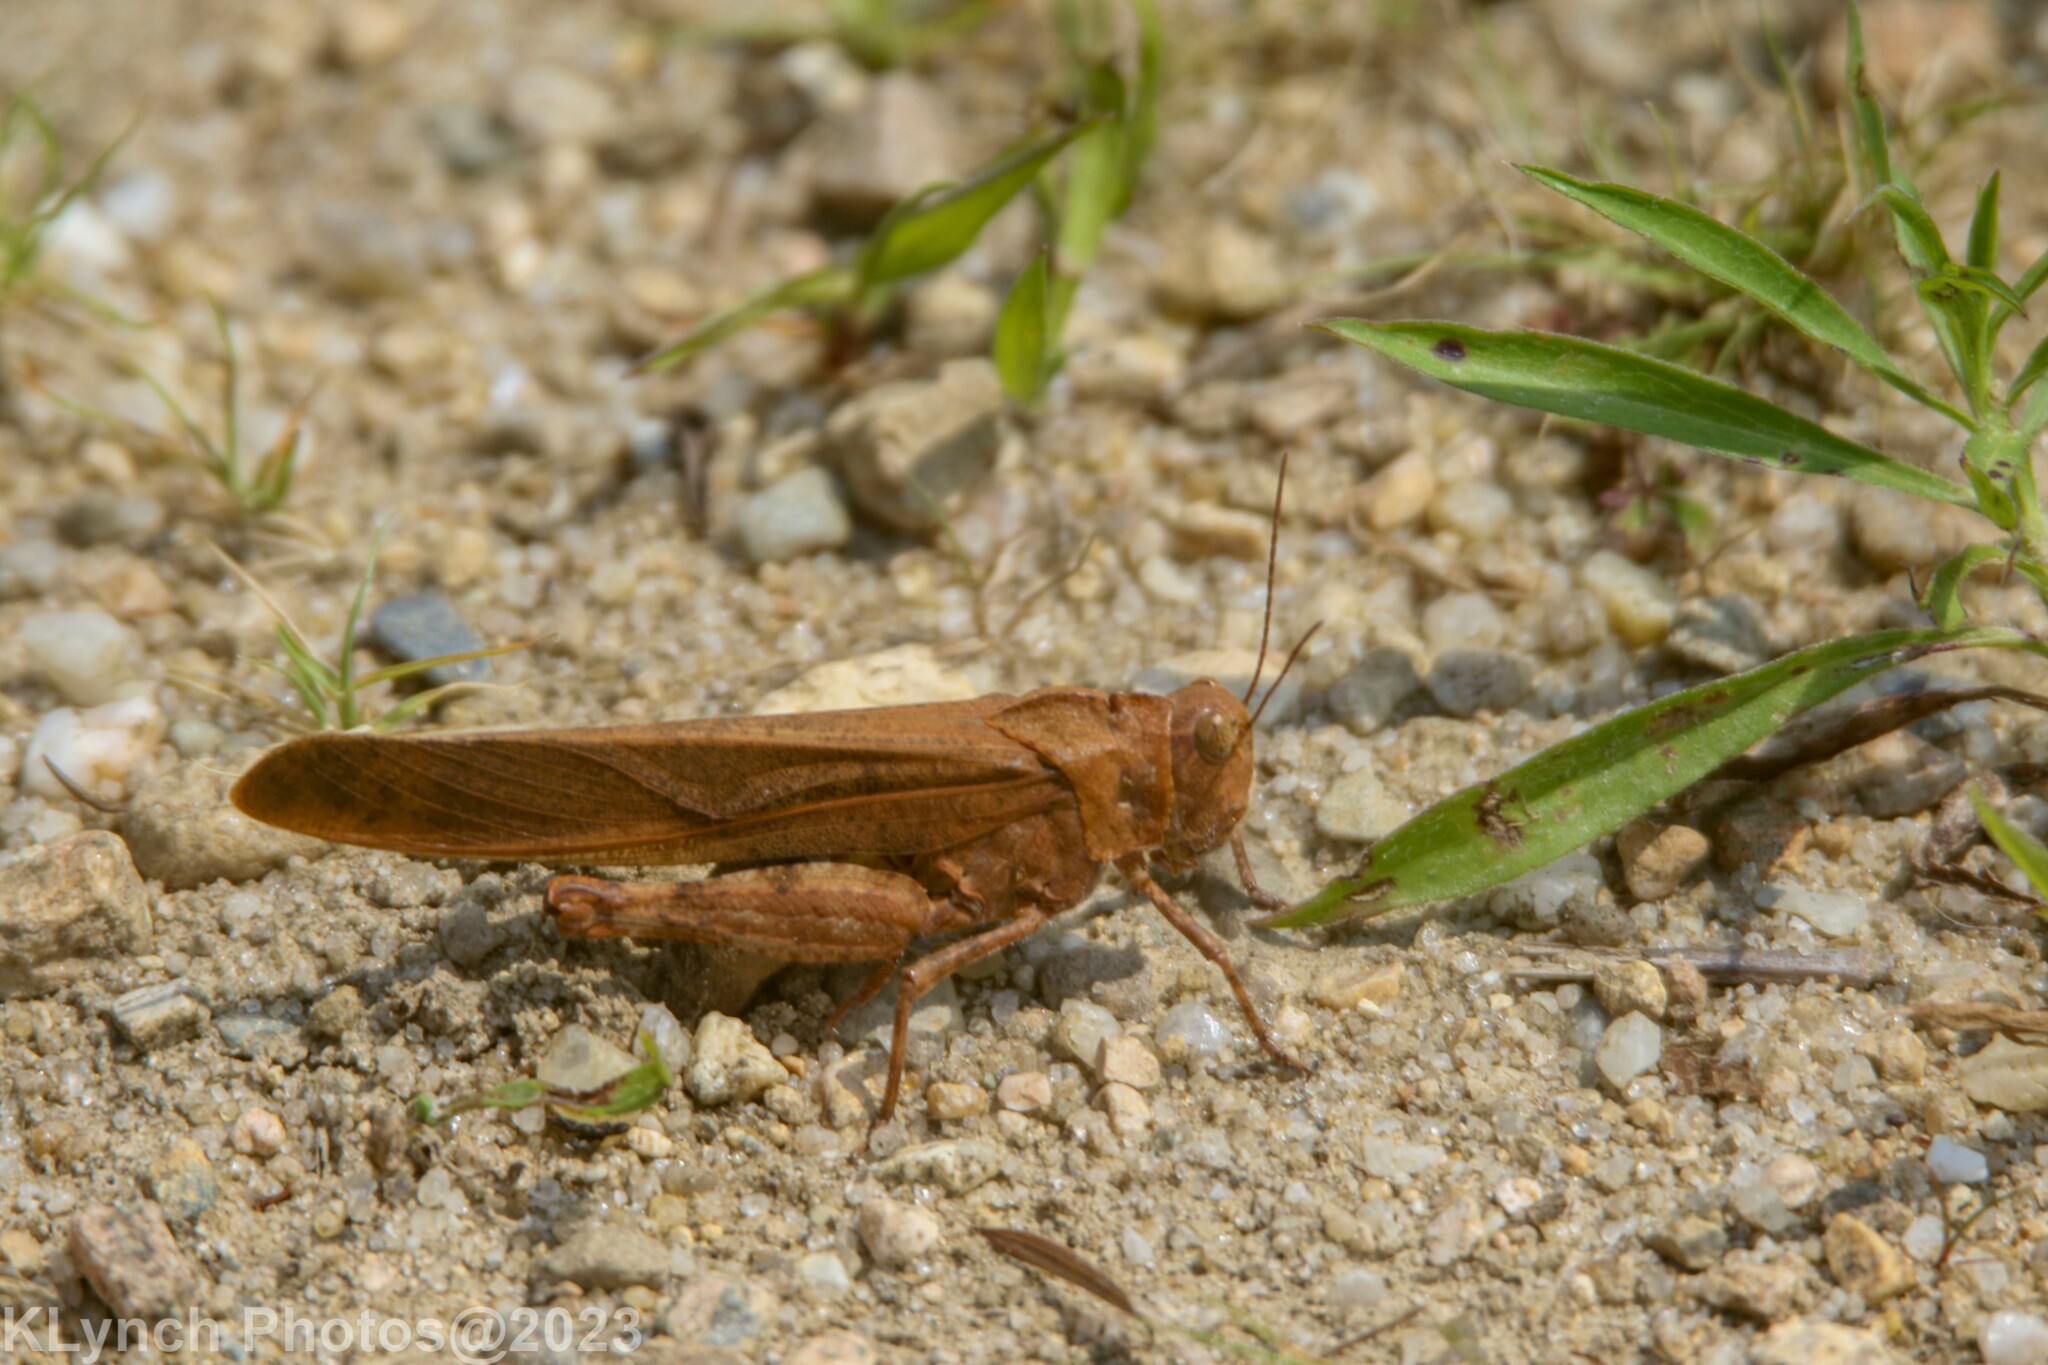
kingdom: Animalia
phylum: Arthropoda
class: Insecta
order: Orthoptera
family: Acrididae
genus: Dissosteira
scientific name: Dissosteira carolina
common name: Carolina grasshopper
